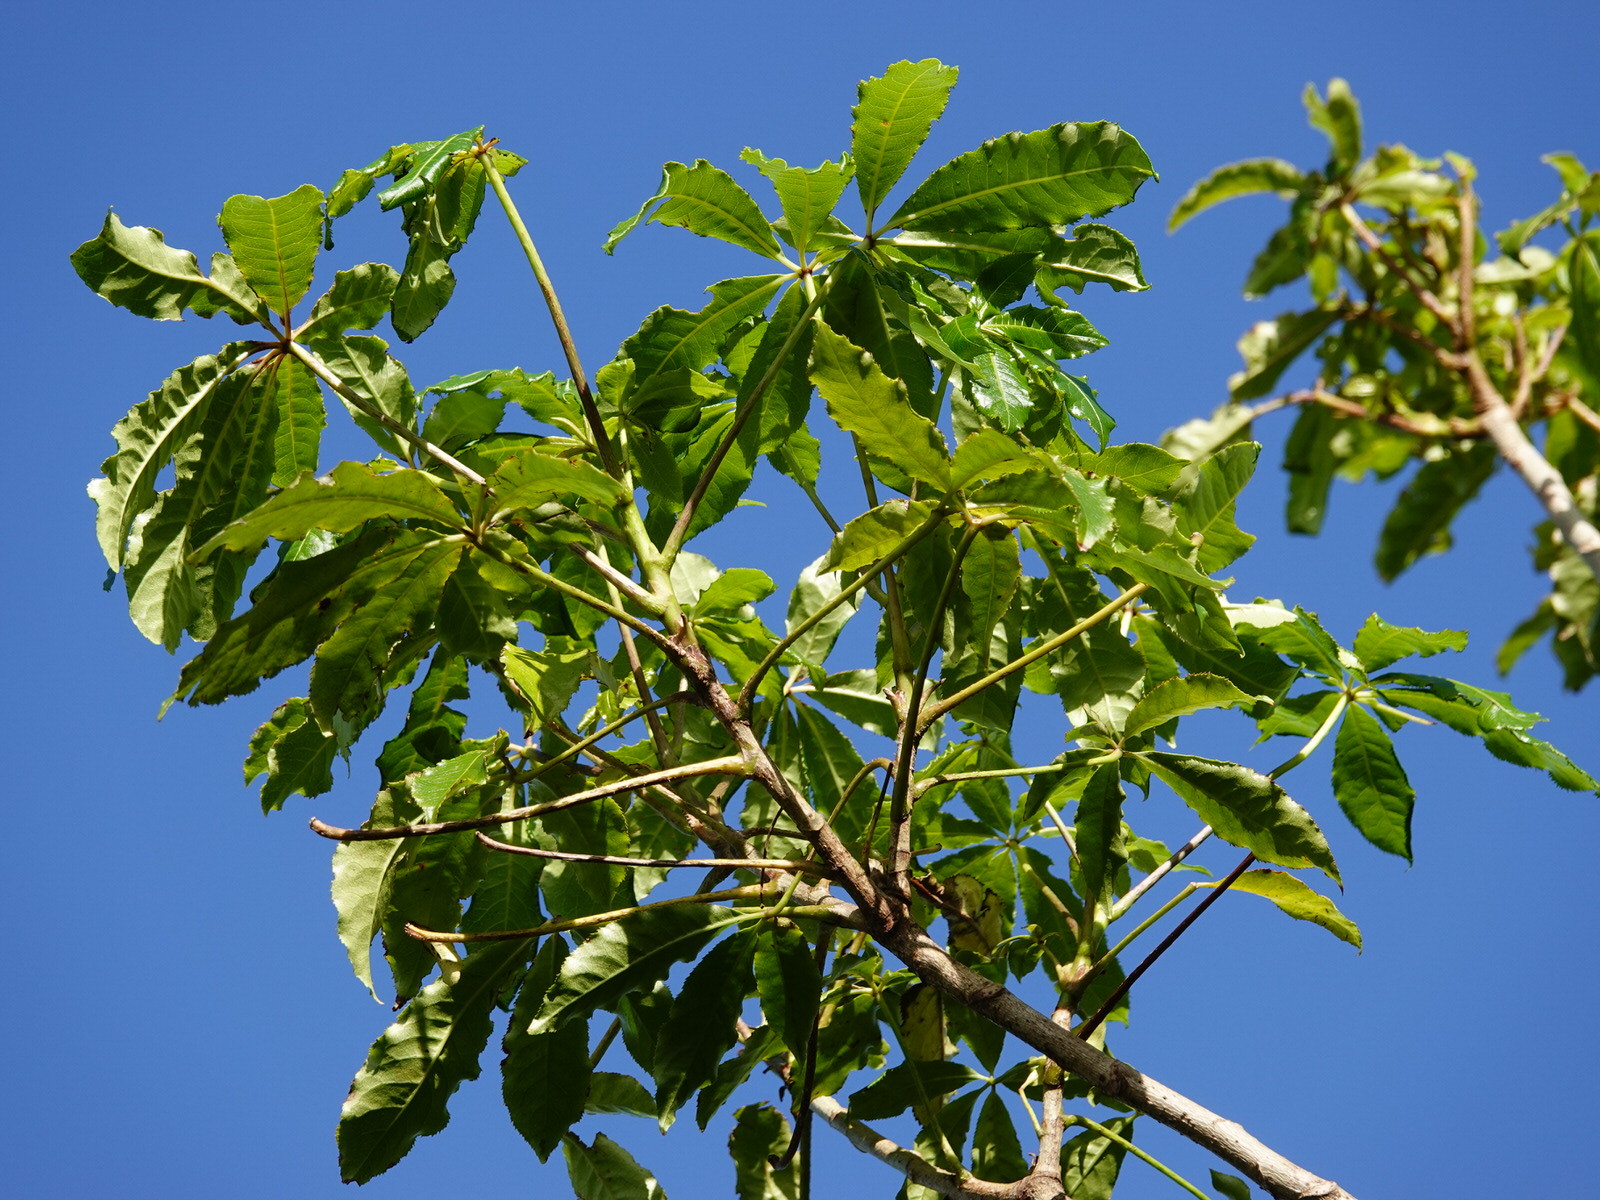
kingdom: Plantae
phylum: Tracheophyta
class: Magnoliopsida
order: Apiales
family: Araliaceae
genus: Schefflera
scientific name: Schefflera digitata
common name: Pate
